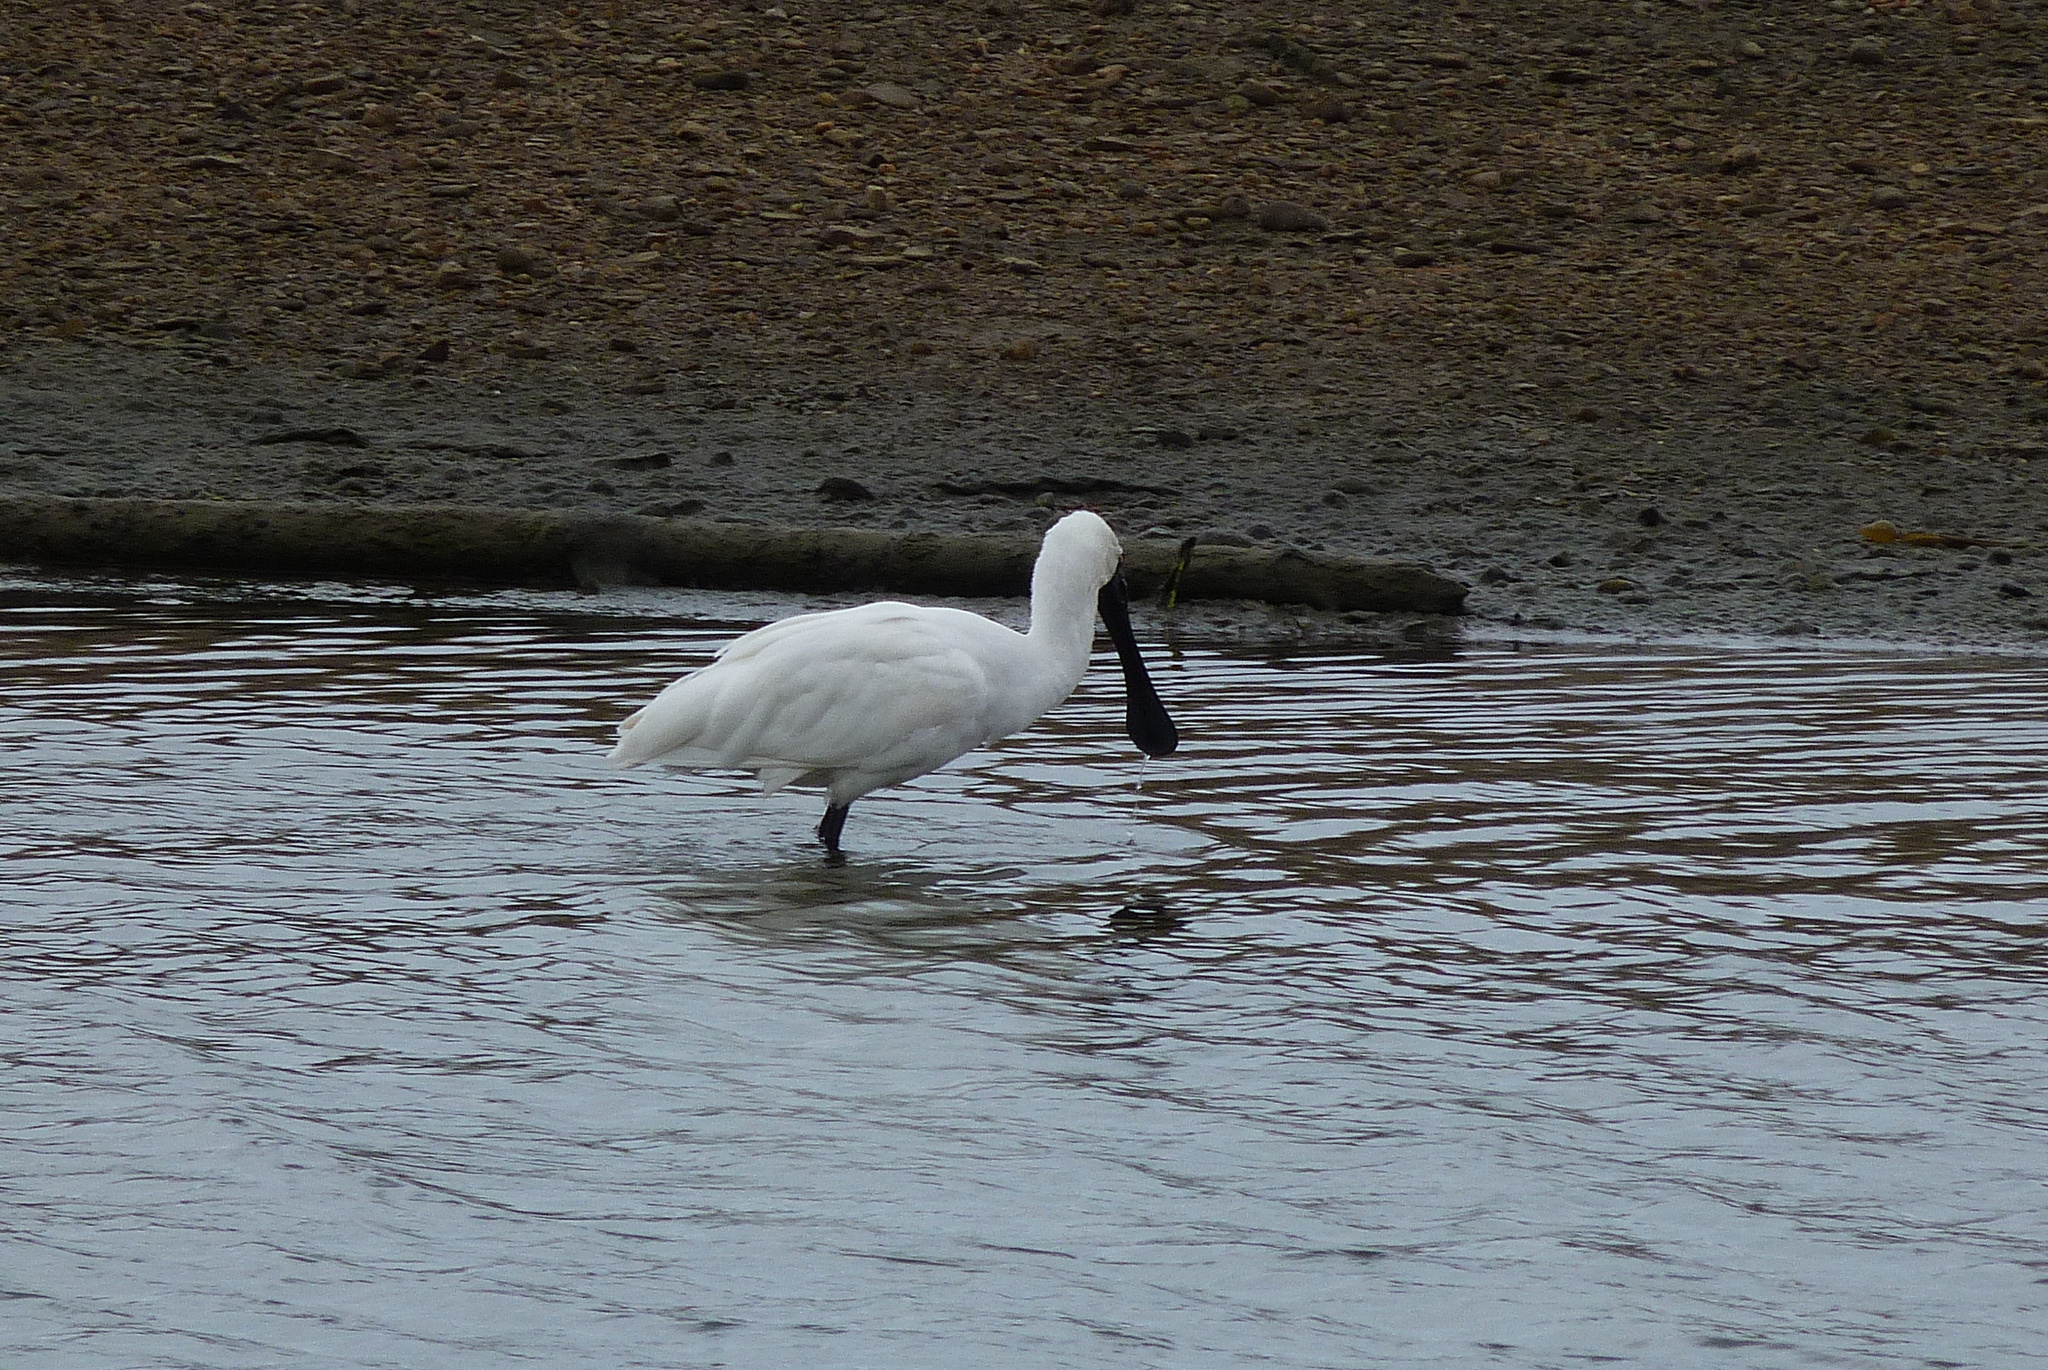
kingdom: Animalia
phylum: Chordata
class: Aves
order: Pelecaniformes
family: Threskiornithidae
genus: Platalea
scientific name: Platalea regia
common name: Royal spoonbill
